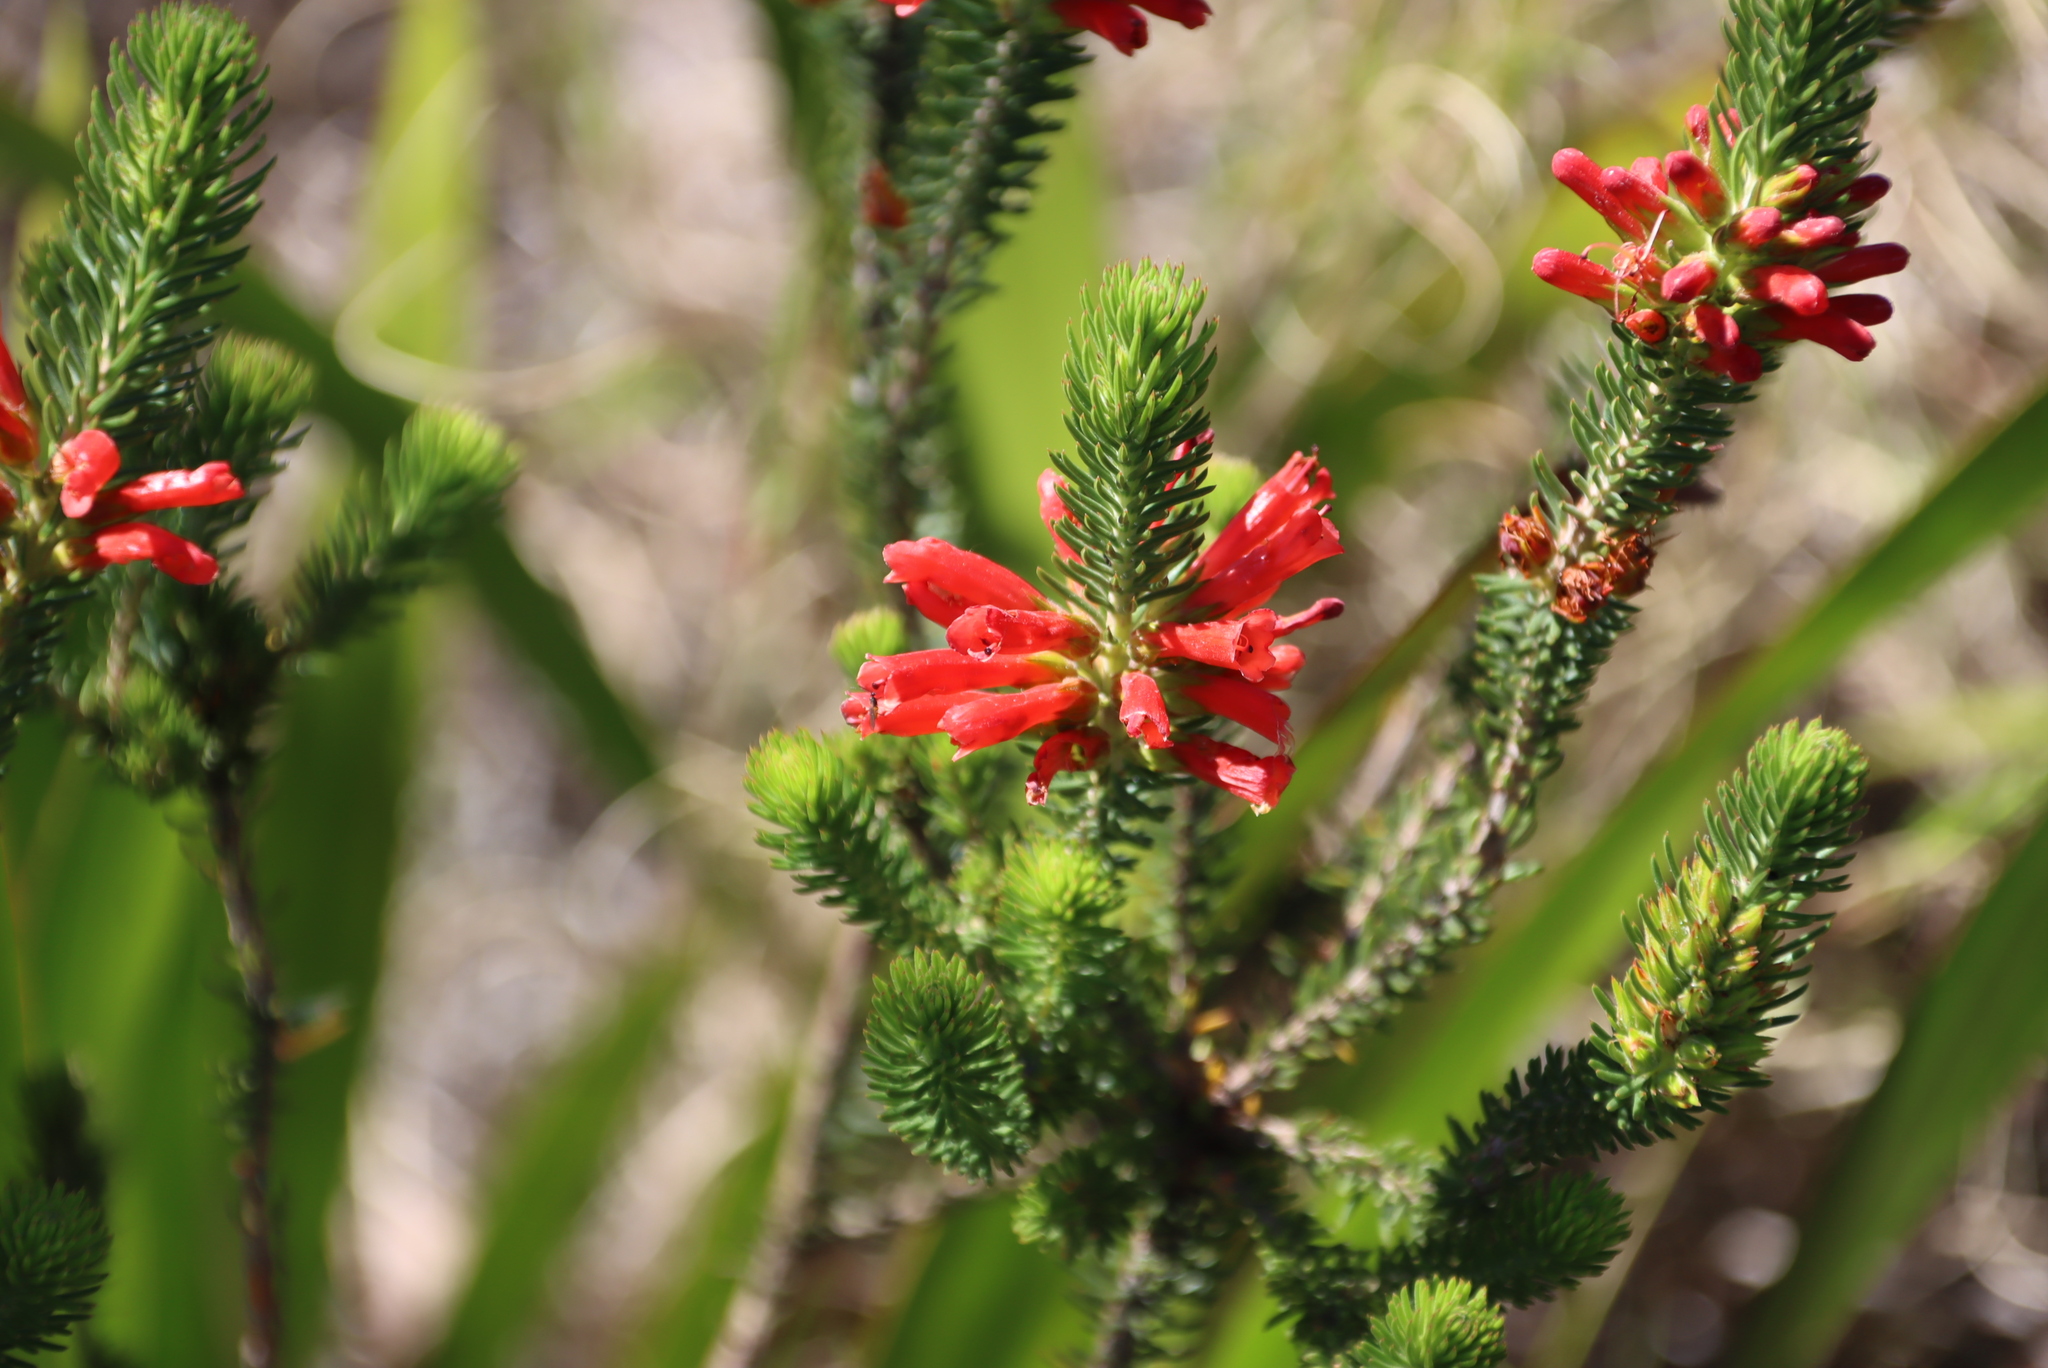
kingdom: Plantae
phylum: Tracheophyta
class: Magnoliopsida
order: Ericales
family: Ericaceae
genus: Erica
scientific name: Erica abietina
